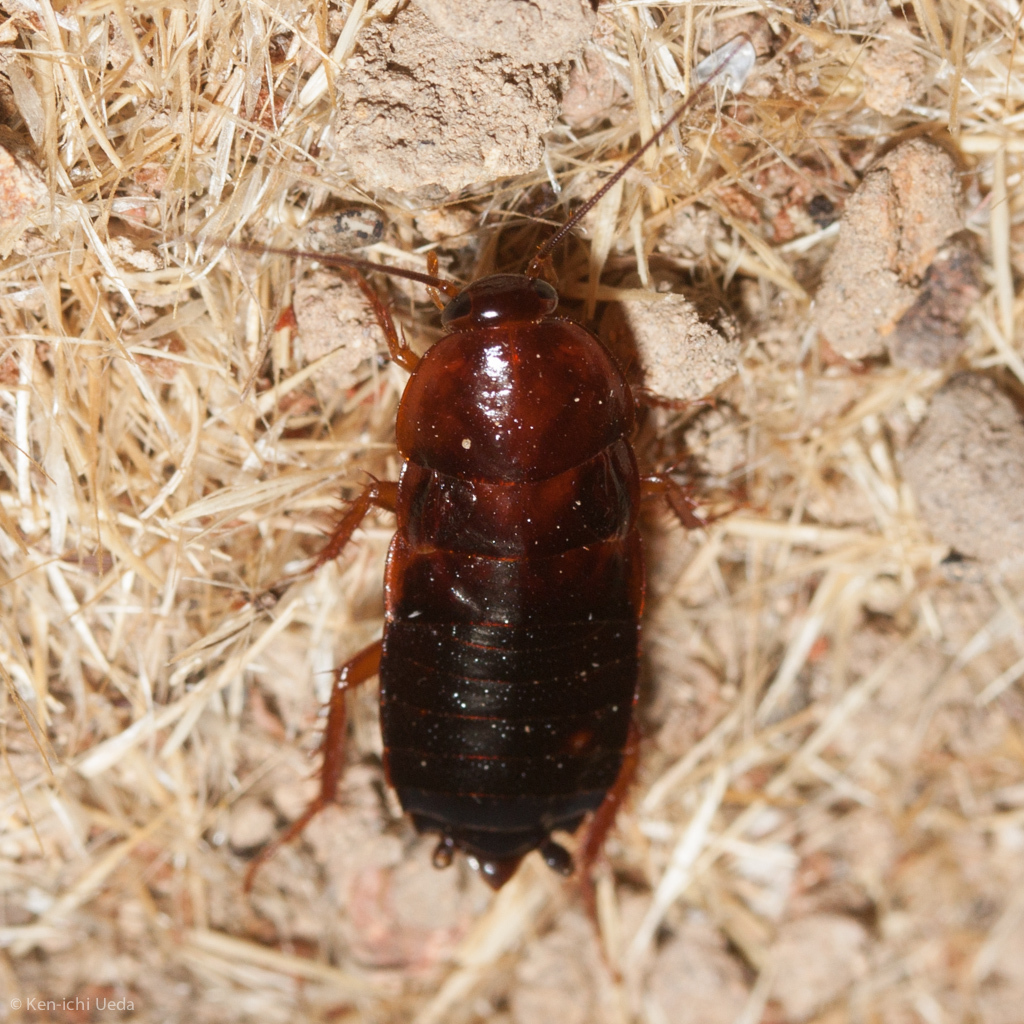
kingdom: Animalia
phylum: Arthropoda
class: Insecta
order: Blattodea
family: Ectobiidae
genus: Parcoblatta
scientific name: Parcoblatta americana
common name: Western wood cockroach
